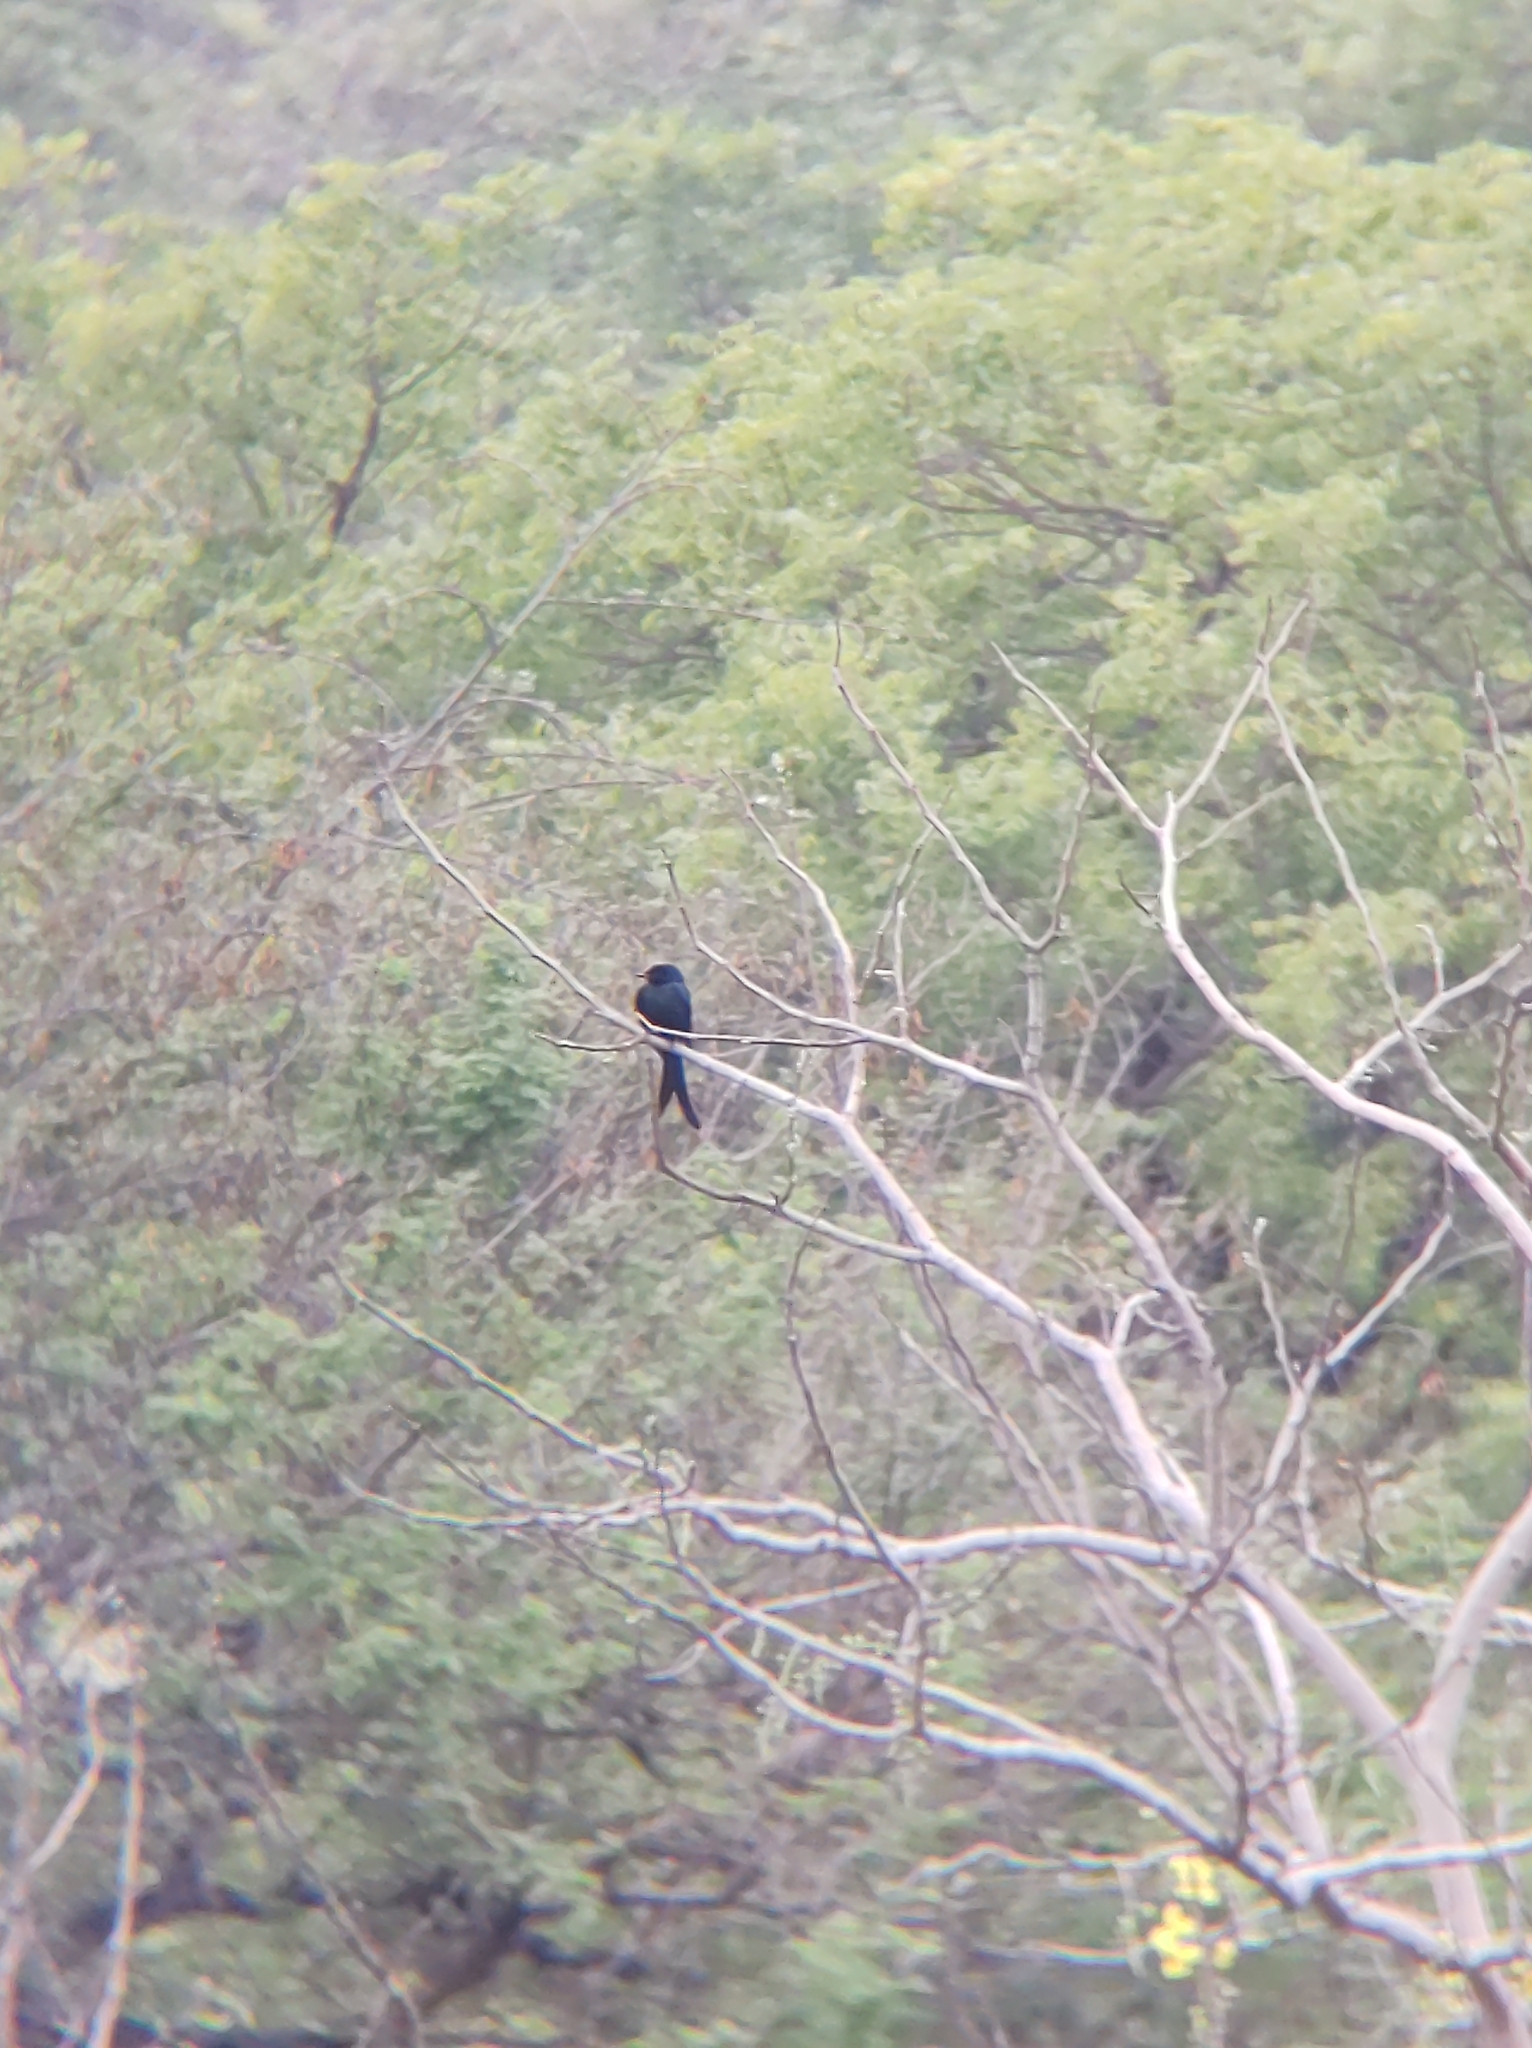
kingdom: Animalia
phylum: Chordata
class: Aves
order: Passeriformes
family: Dicruridae
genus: Dicrurus
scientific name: Dicrurus macrocercus
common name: Black drongo
